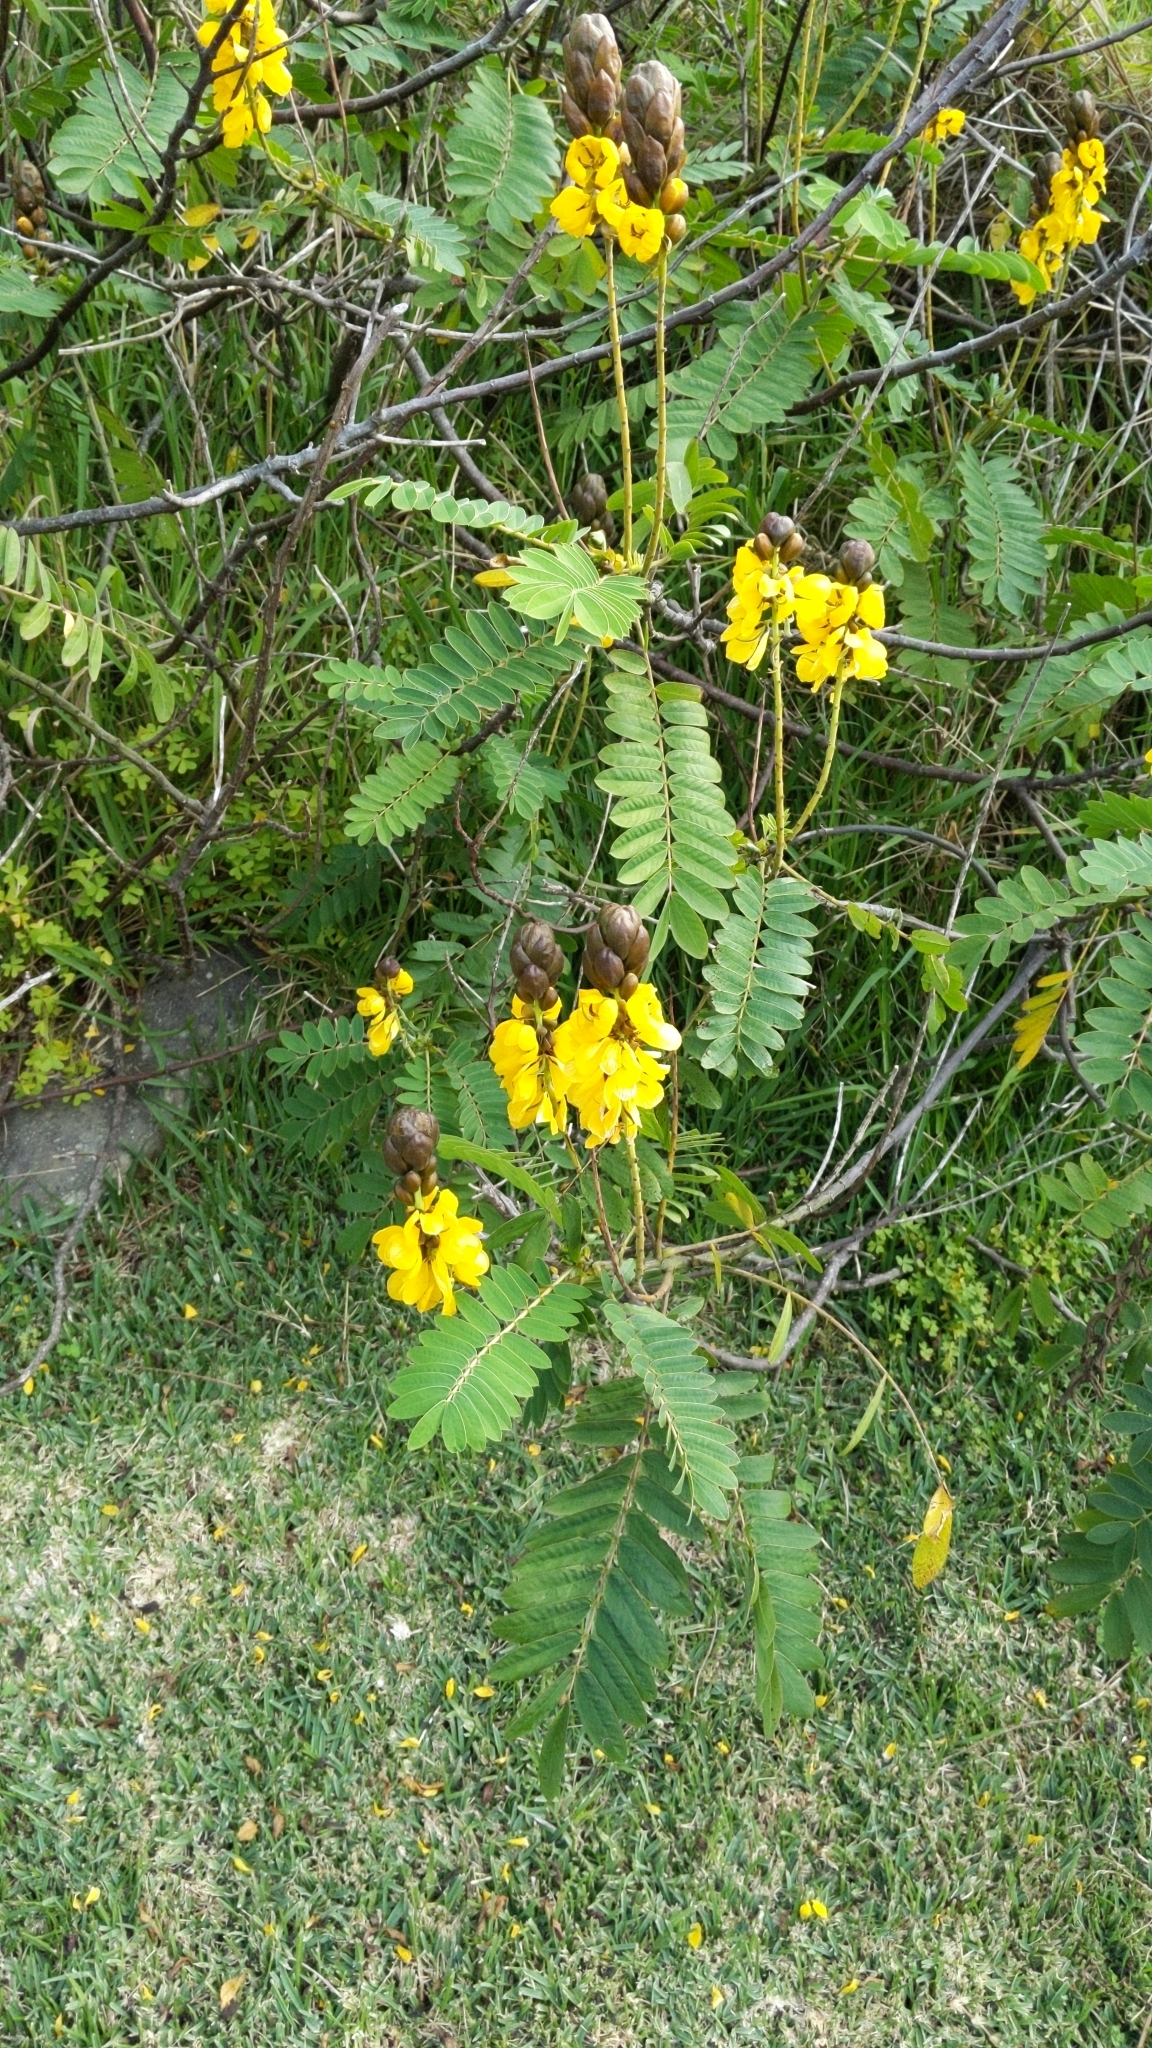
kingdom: Plantae
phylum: Tracheophyta
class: Magnoliopsida
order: Fabales
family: Fabaceae
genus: Senna
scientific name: Senna didymobotrya
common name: African senna
